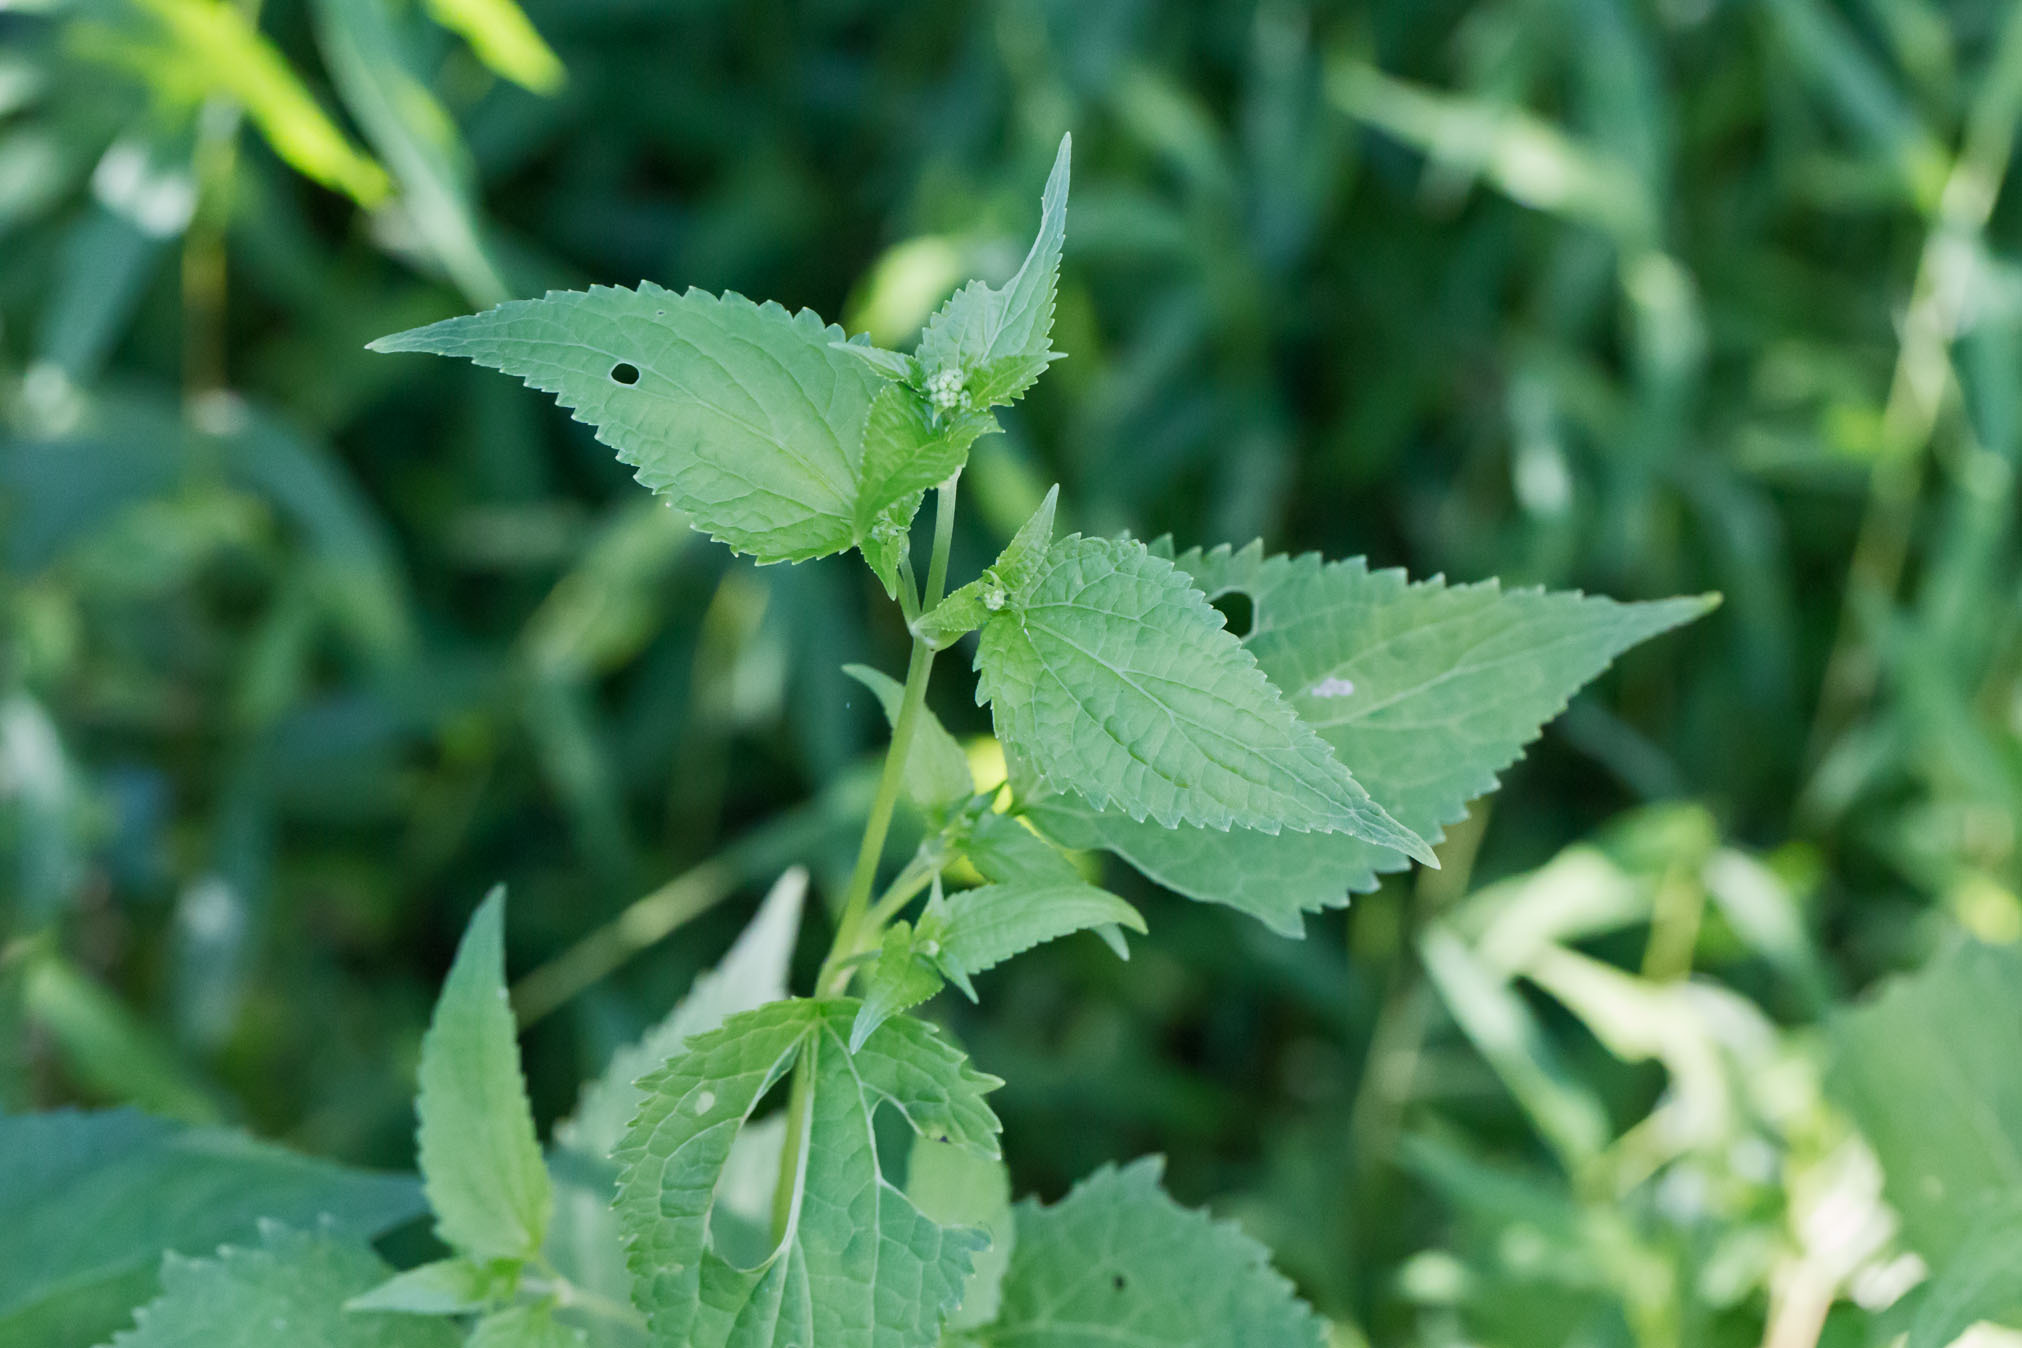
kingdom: Plantae
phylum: Tracheophyta
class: Magnoliopsida
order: Asterales
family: Asteraceae
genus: Ageratina
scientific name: Ageratina altissima
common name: White snakeroot
